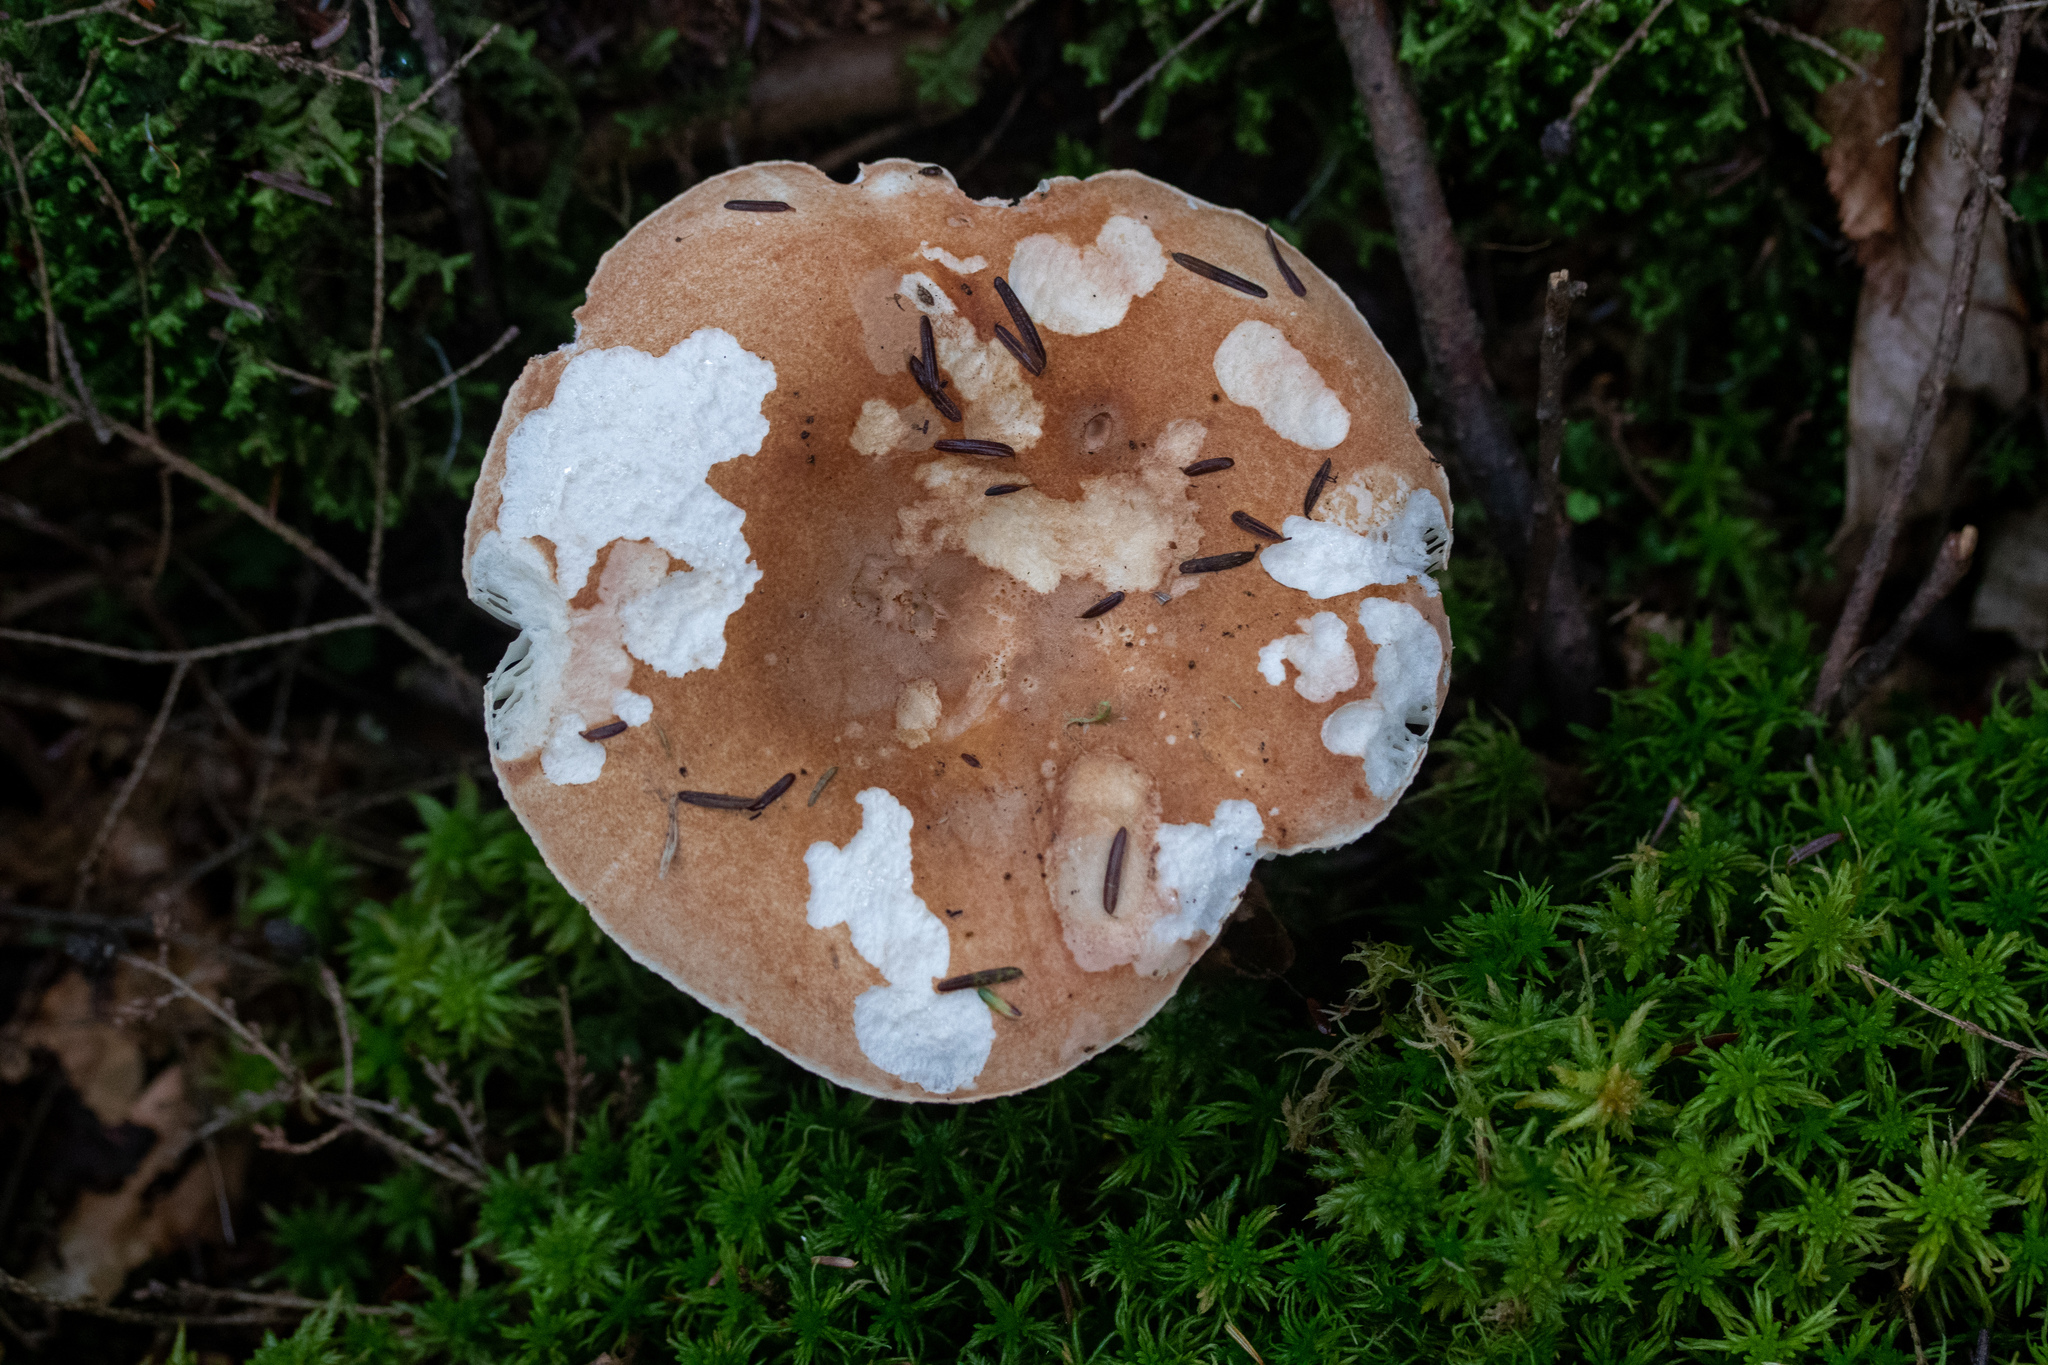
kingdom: Fungi
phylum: Basidiomycota
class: Agaricomycetes
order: Russulales
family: Russulaceae
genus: Russula
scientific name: Russula compacta
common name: Fishbiscuit russula
